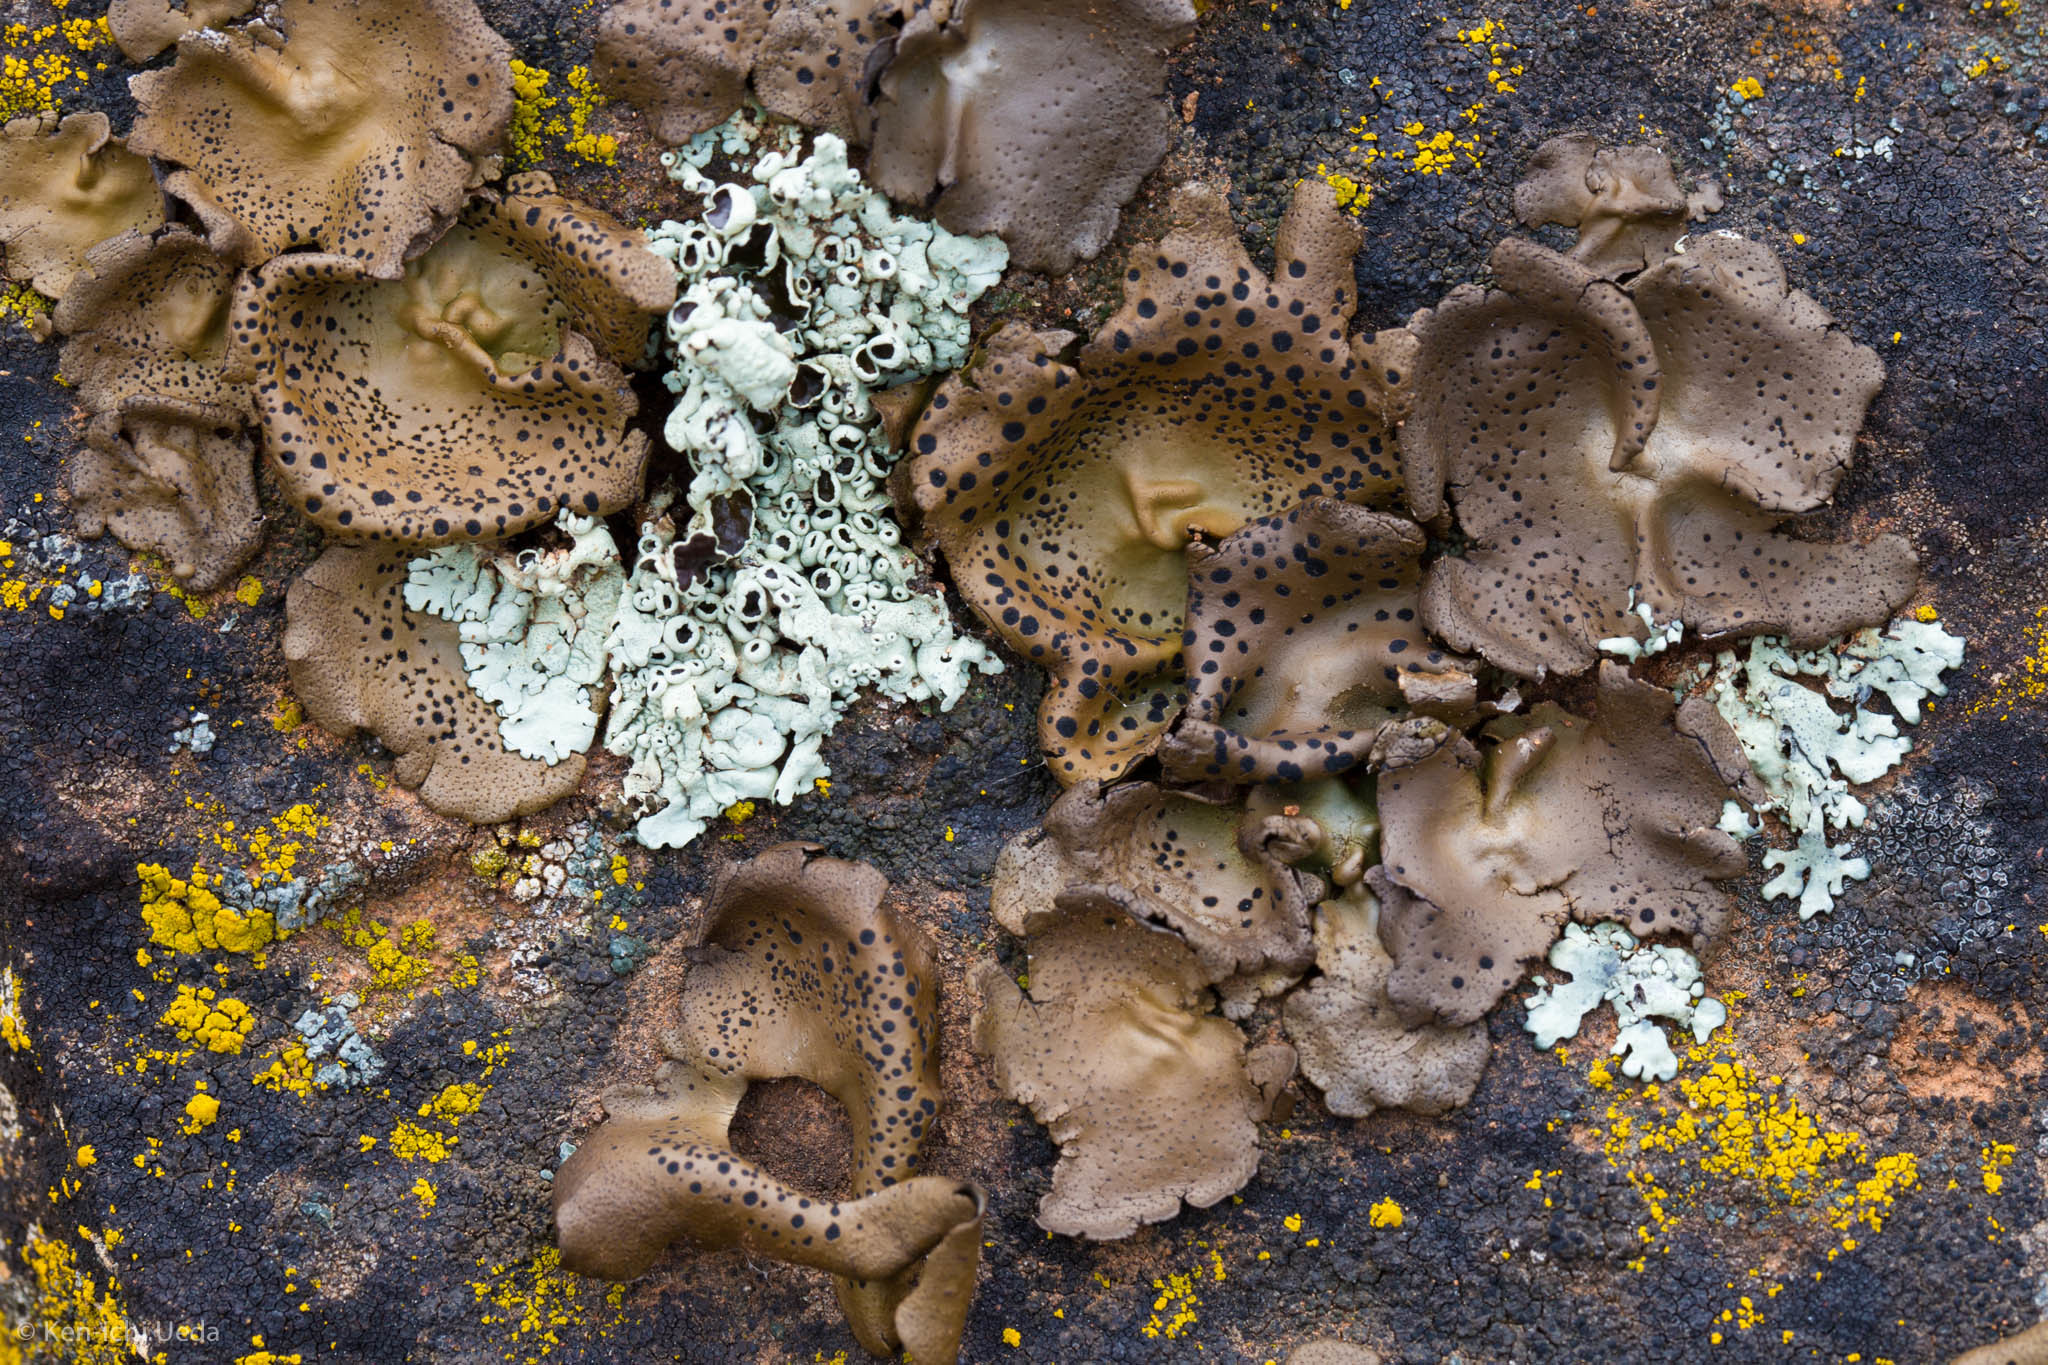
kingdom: Fungi
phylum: Ascomycota
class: Lecanoromycetes
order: Umbilicariales
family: Umbilicariaceae
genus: Umbilicaria
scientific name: Umbilicaria phaea
